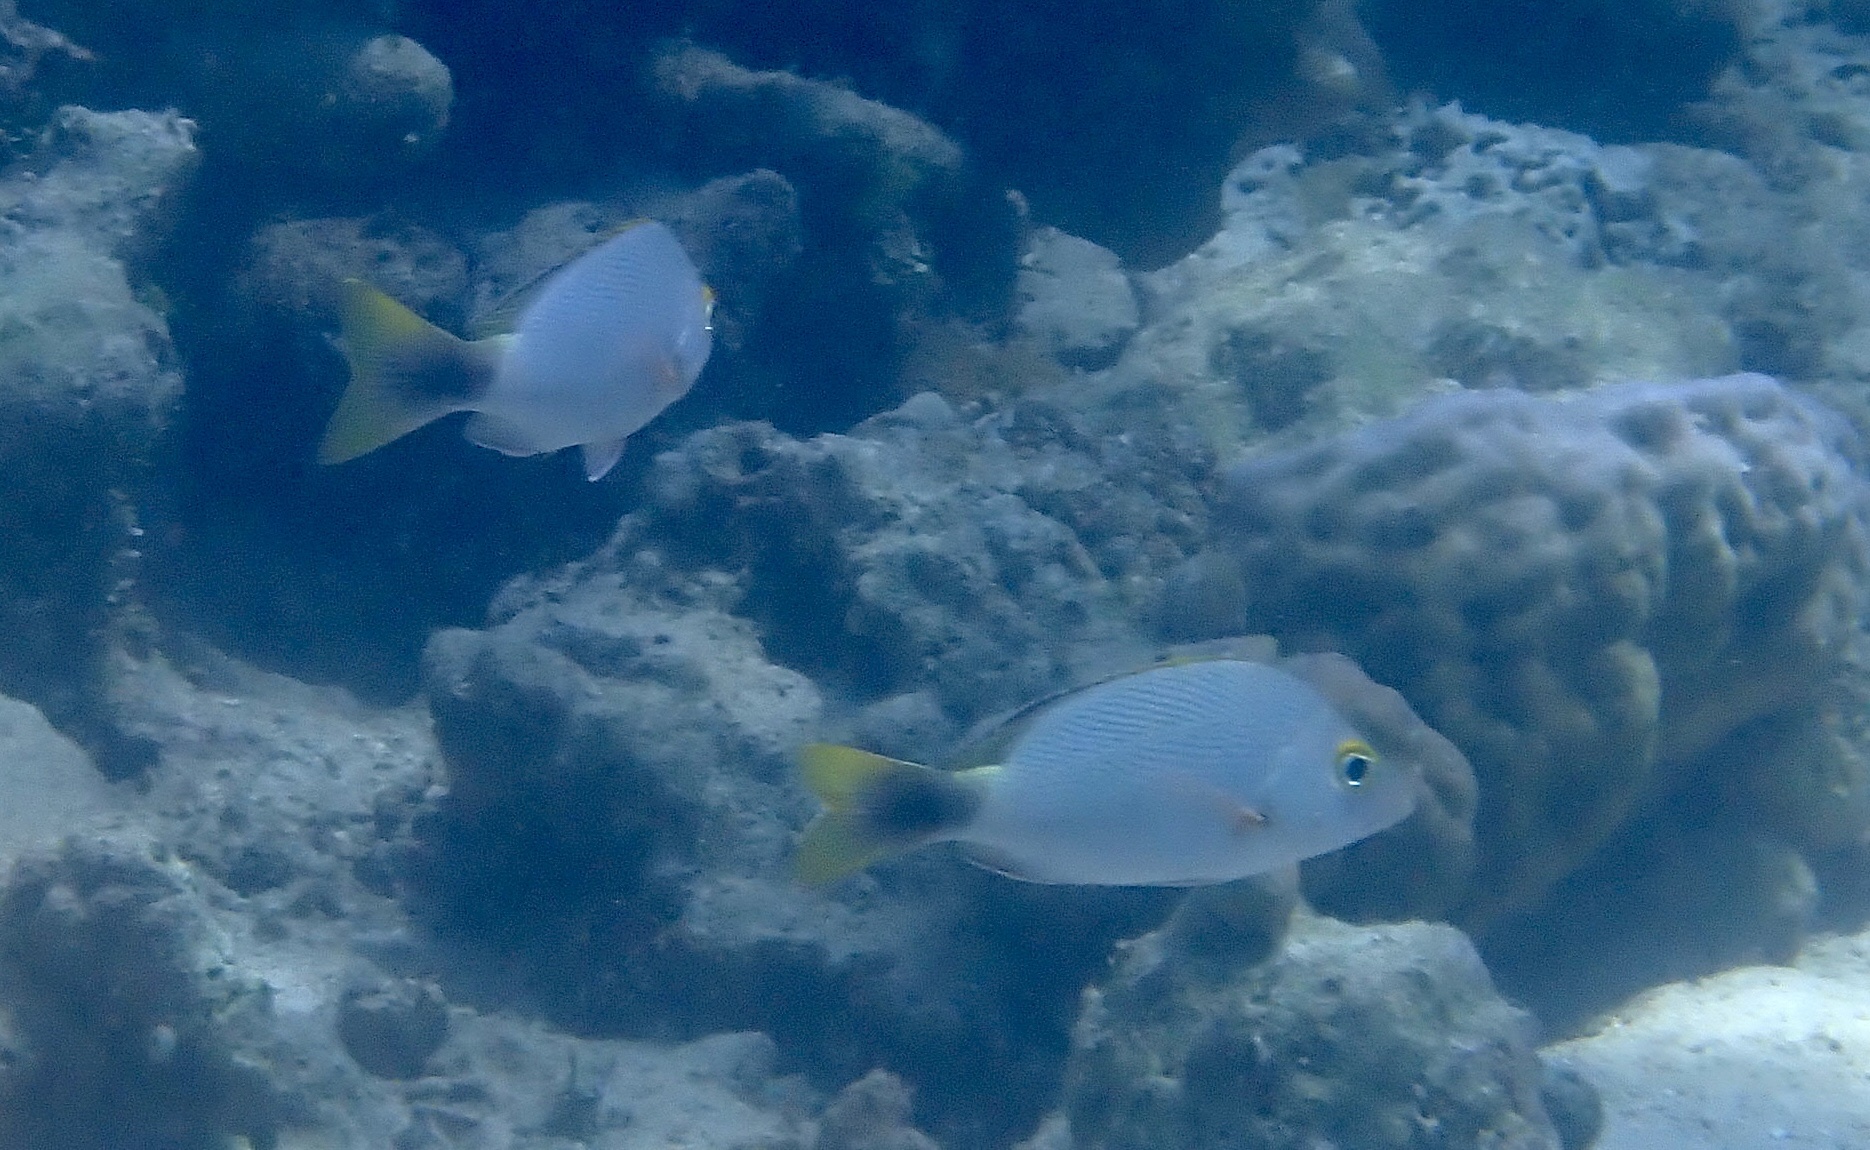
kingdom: Animalia
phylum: Chordata
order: Perciformes
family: Lutjanidae
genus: Lutjanus
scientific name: Lutjanus gibbus
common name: Humpback snapper
